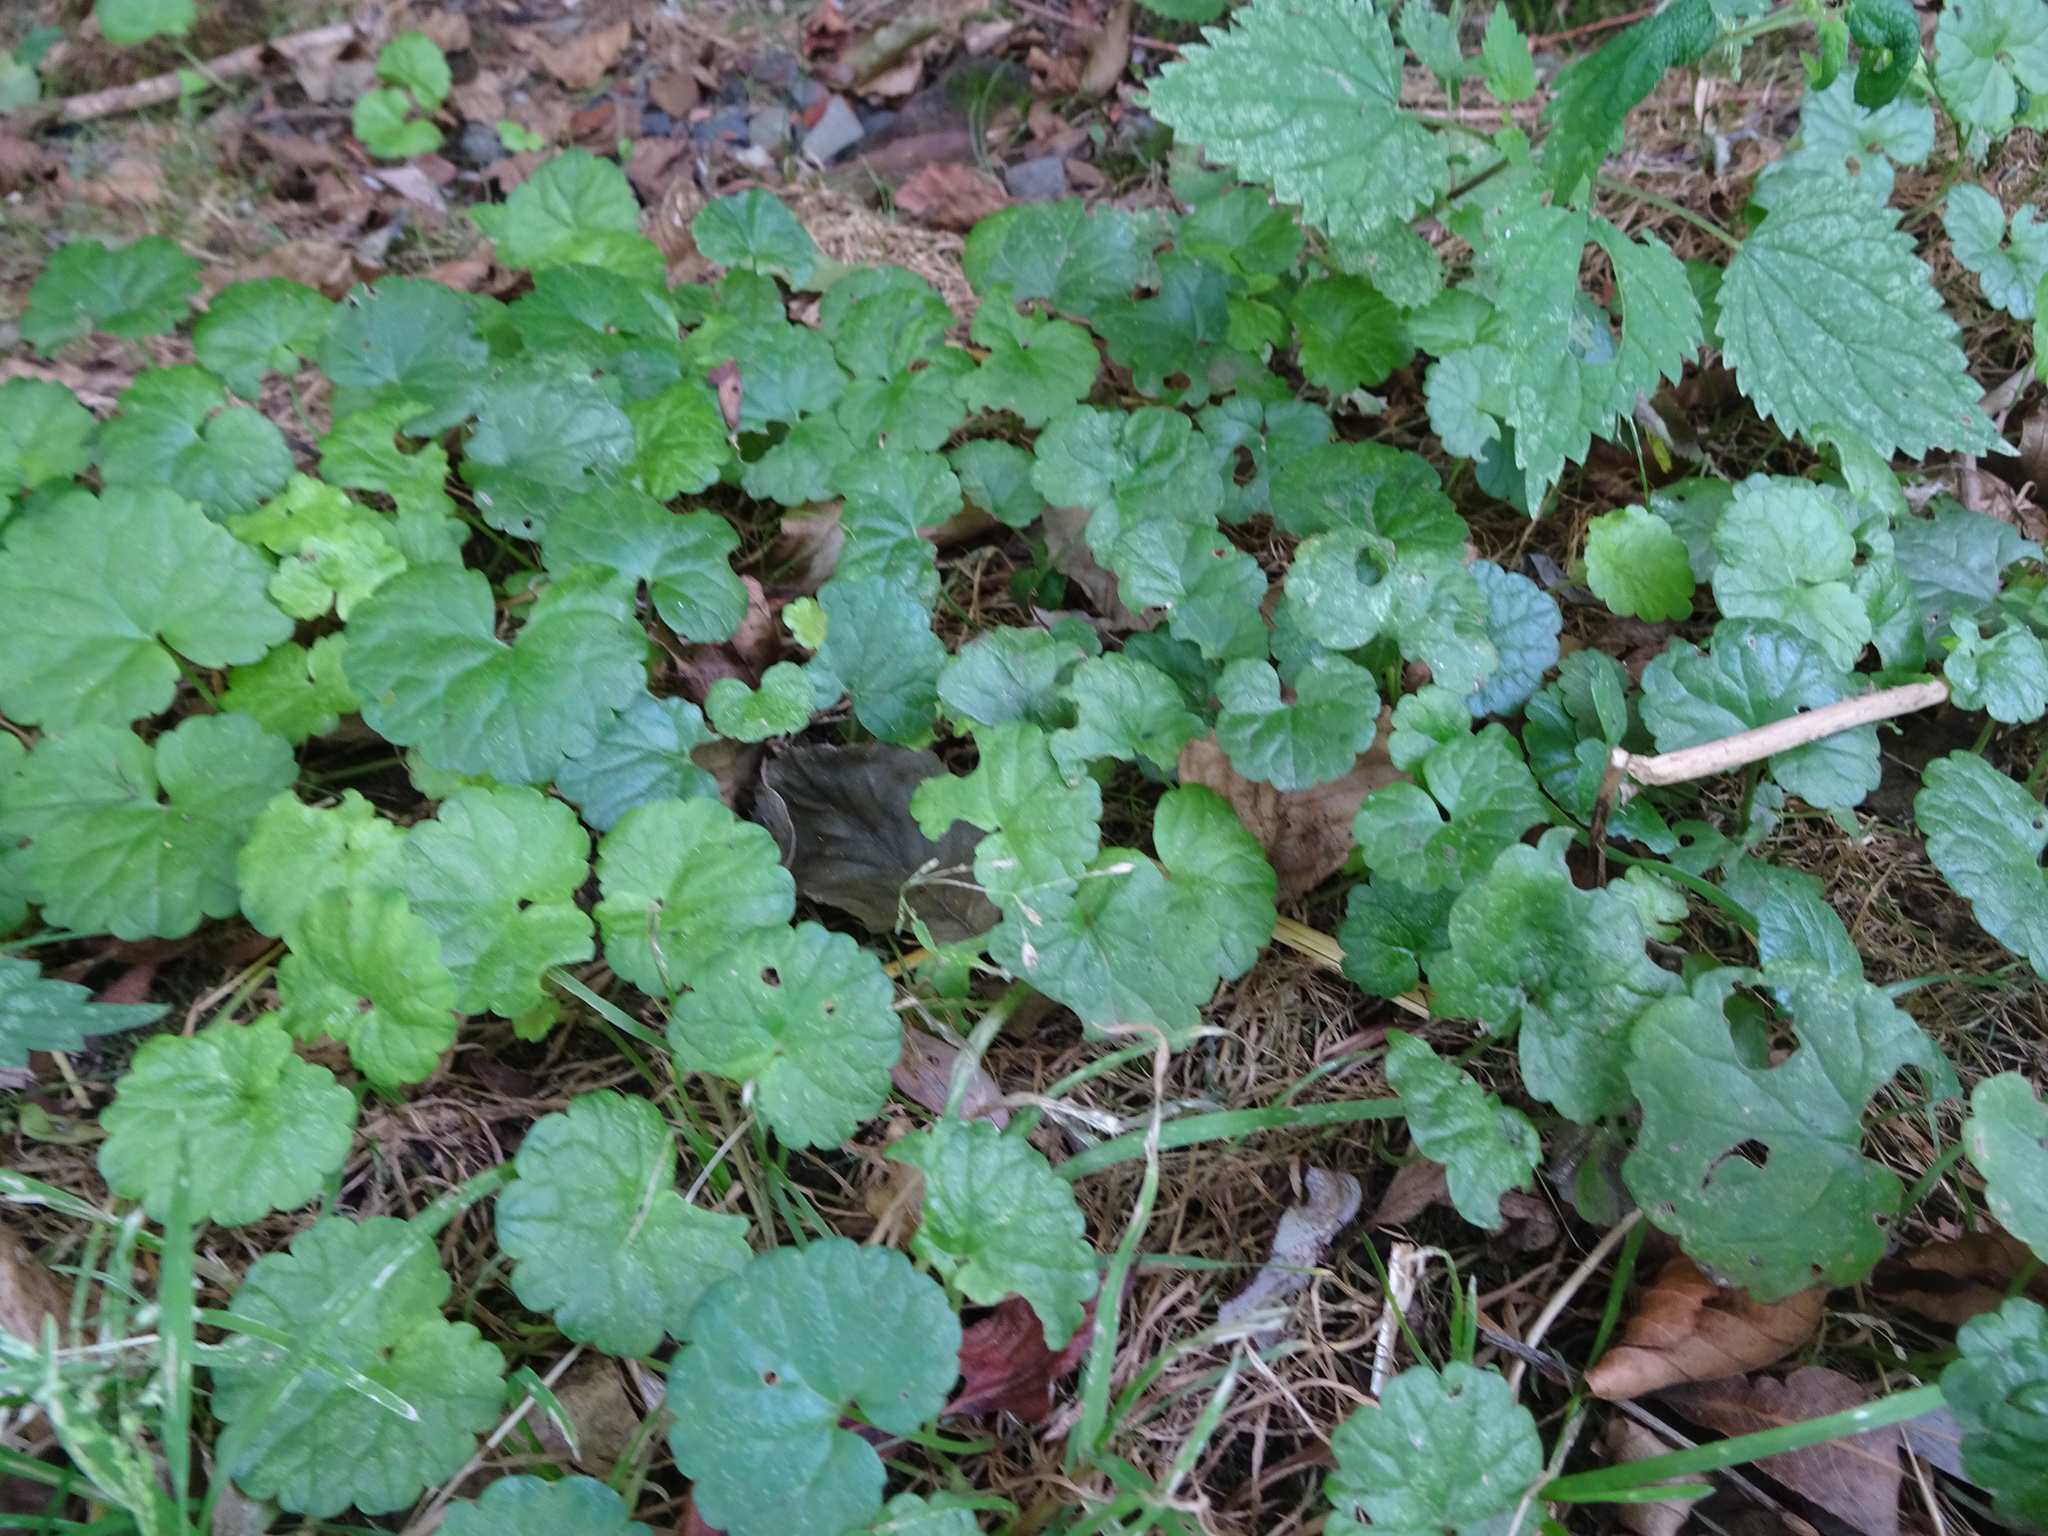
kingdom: Plantae
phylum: Tracheophyta
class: Magnoliopsida
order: Lamiales
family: Lamiaceae
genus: Glechoma
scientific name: Glechoma hederacea
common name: Ground ivy
